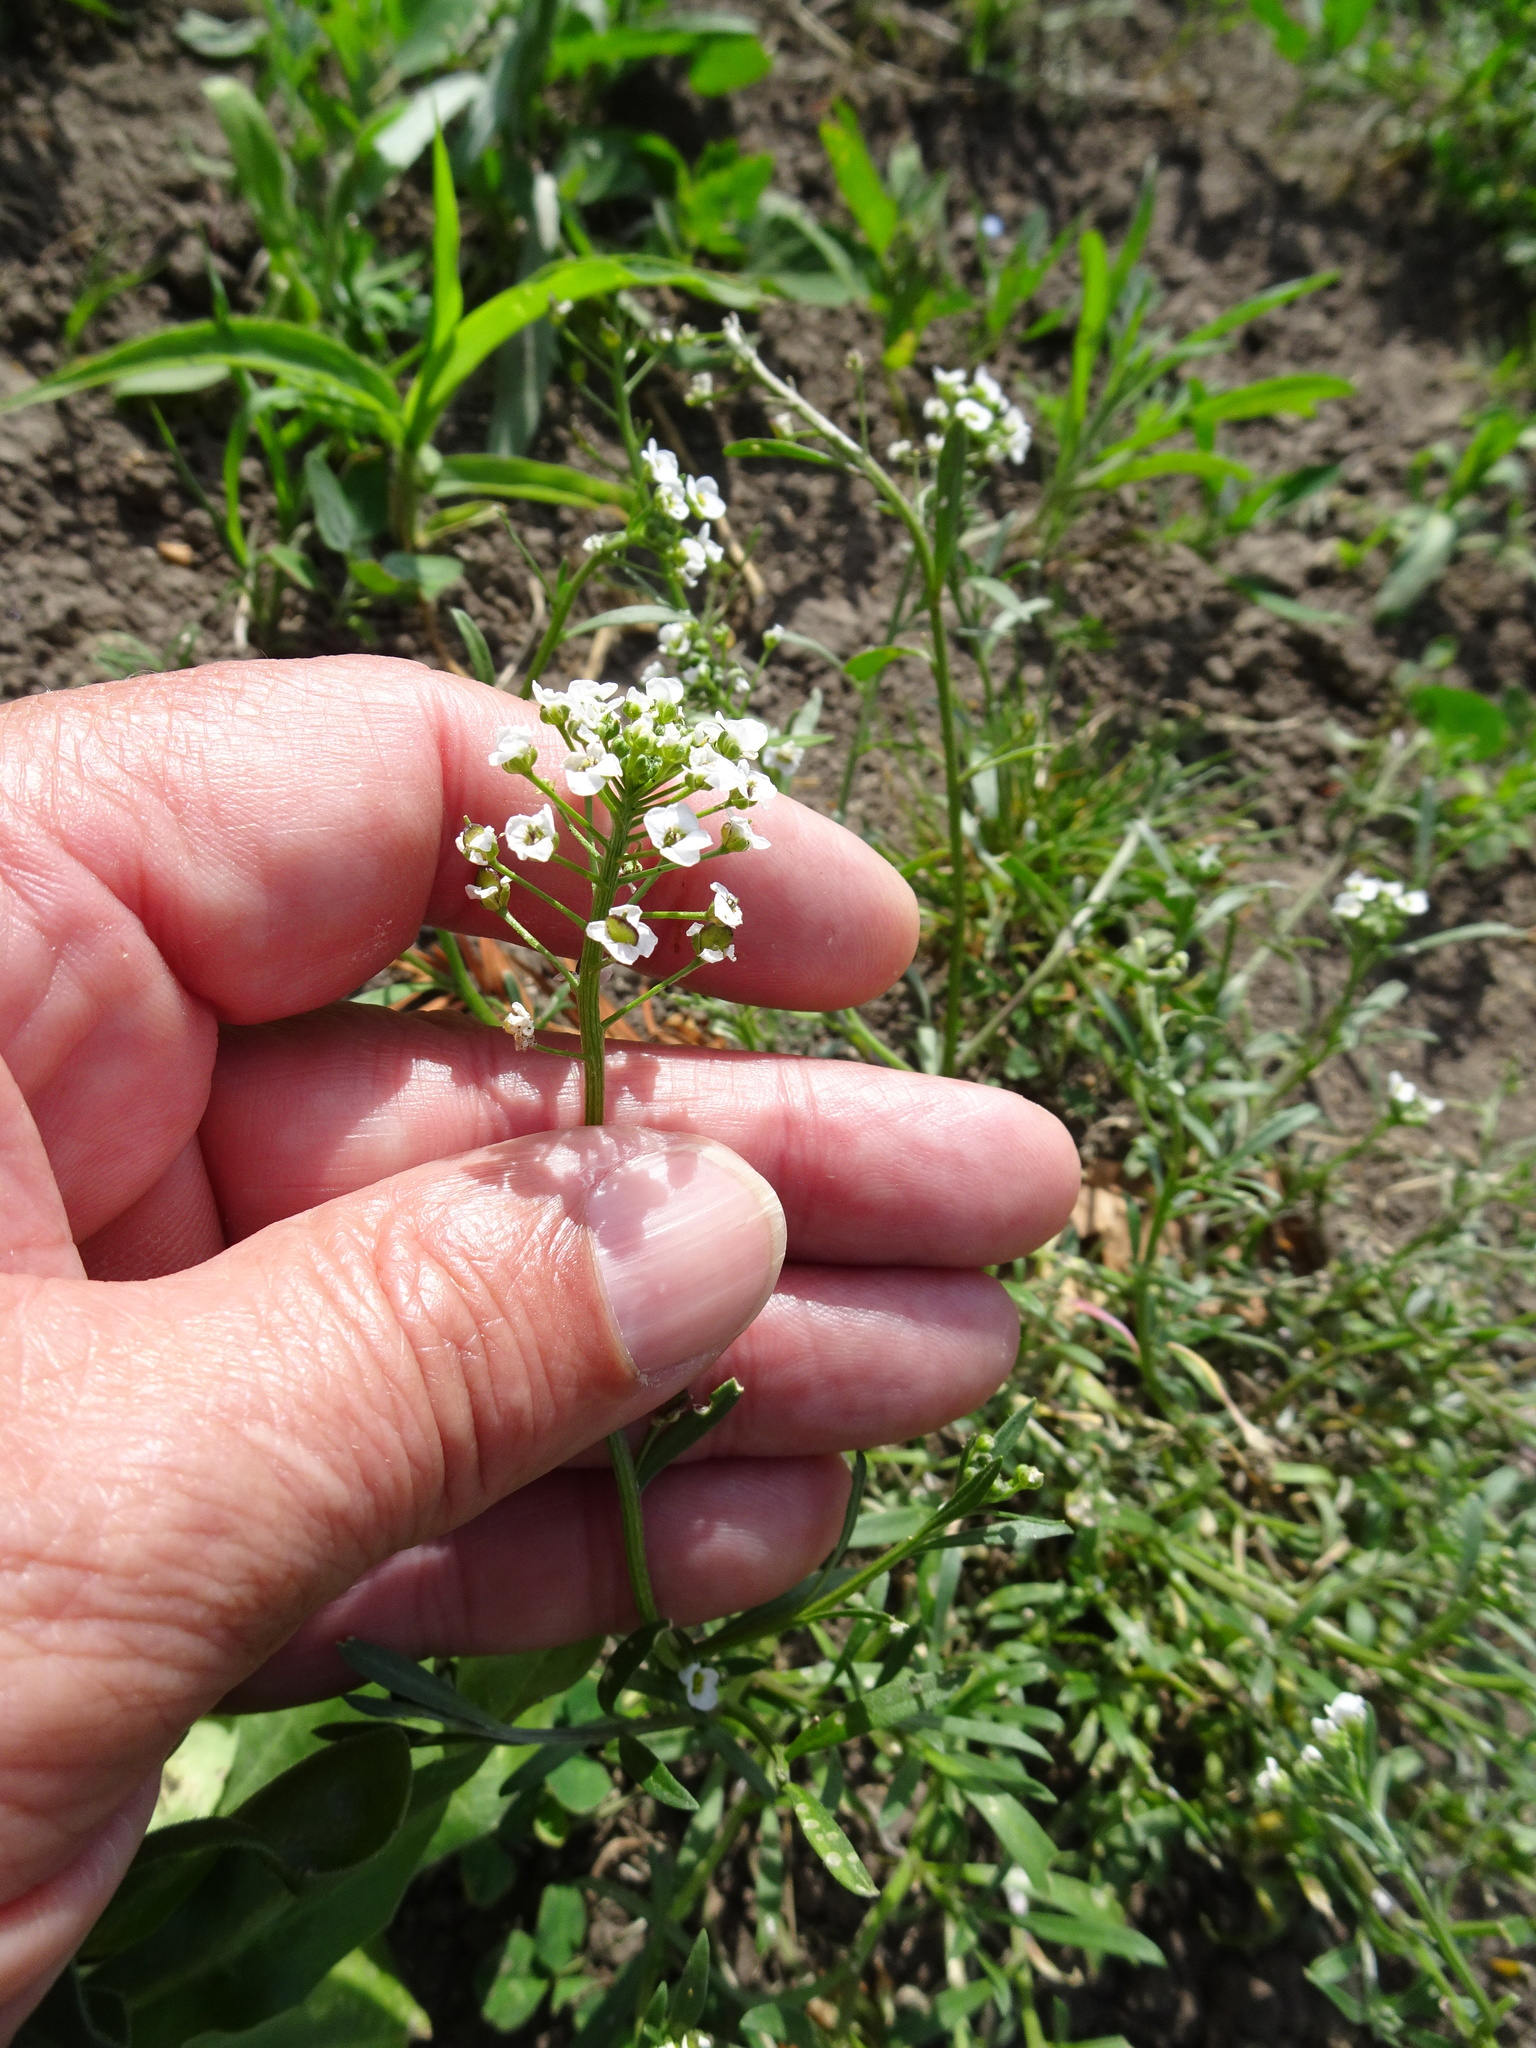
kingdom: Plantae
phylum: Tracheophyta
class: Magnoliopsida
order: Brassicales
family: Brassicaceae
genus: Lobularia
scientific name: Lobularia maritima
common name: Sweet alison
